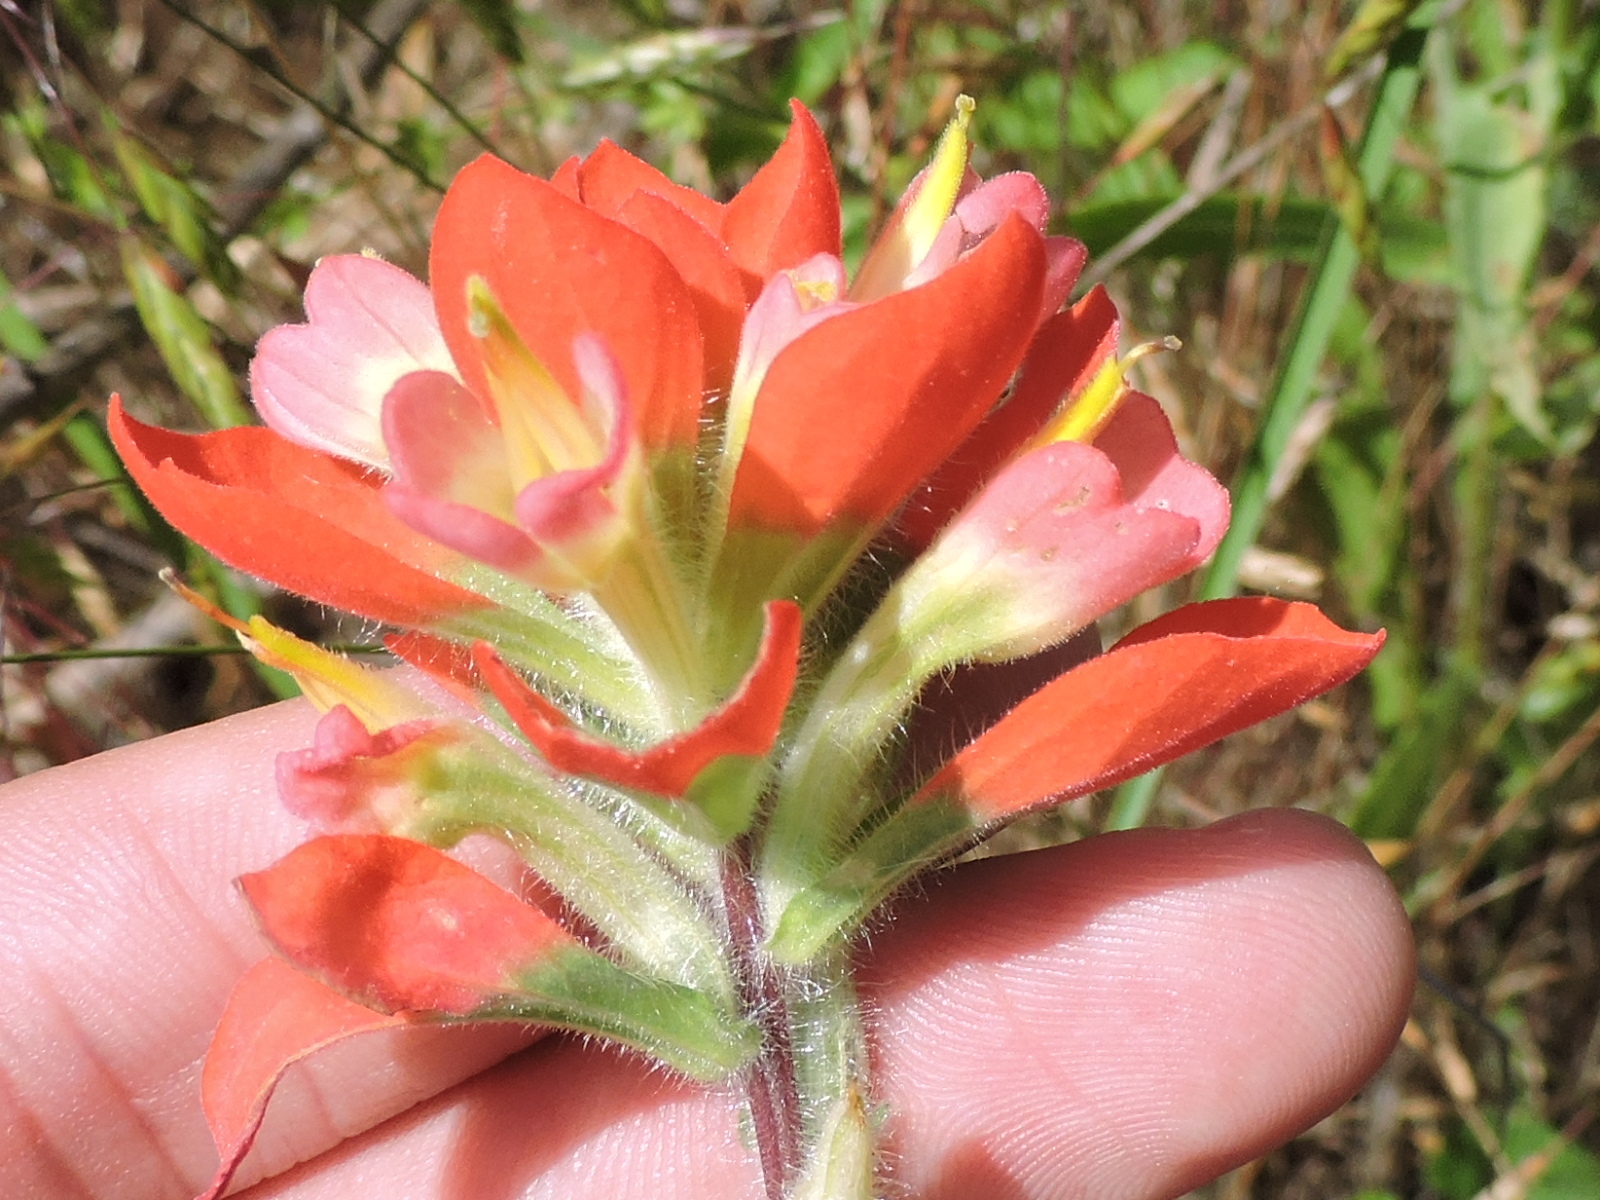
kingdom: Plantae
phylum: Tracheophyta
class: Magnoliopsida
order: Lamiales
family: Orobanchaceae
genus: Castilleja
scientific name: Castilleja indivisa
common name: Texas paintbrush
